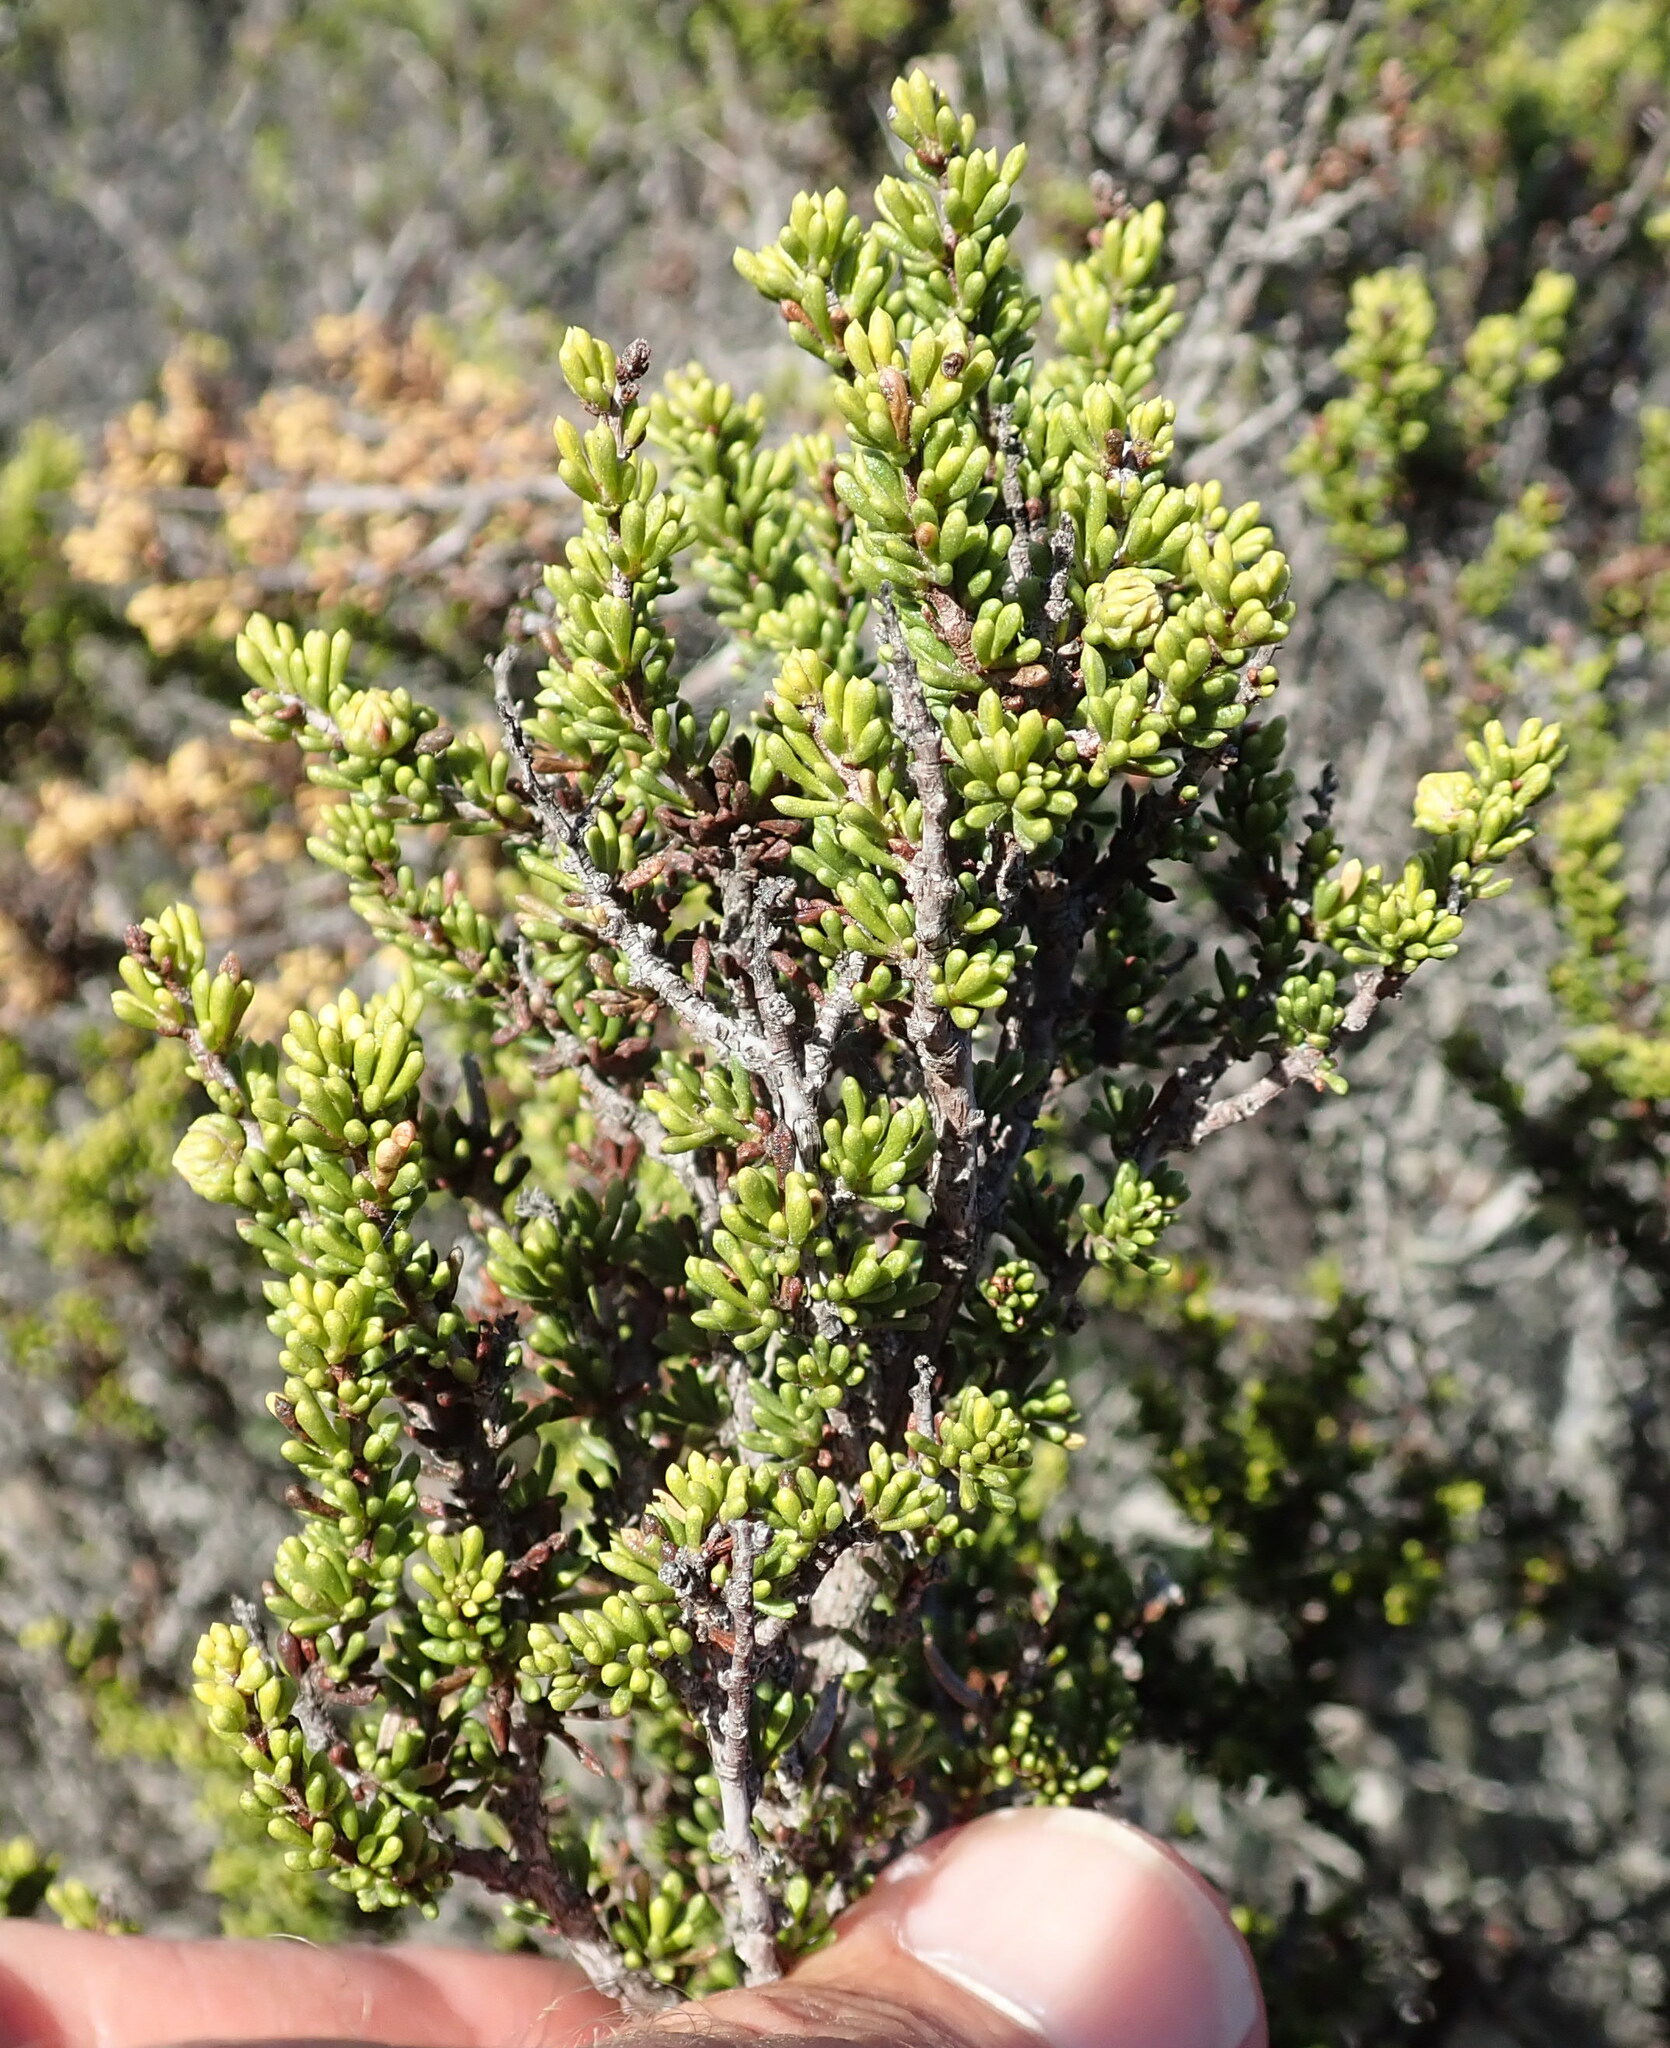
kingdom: Plantae
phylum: Tracheophyta
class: Magnoliopsida
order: Rosales
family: Rosaceae
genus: Adenostoma
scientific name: Adenostoma fasciculatum
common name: Chamise
